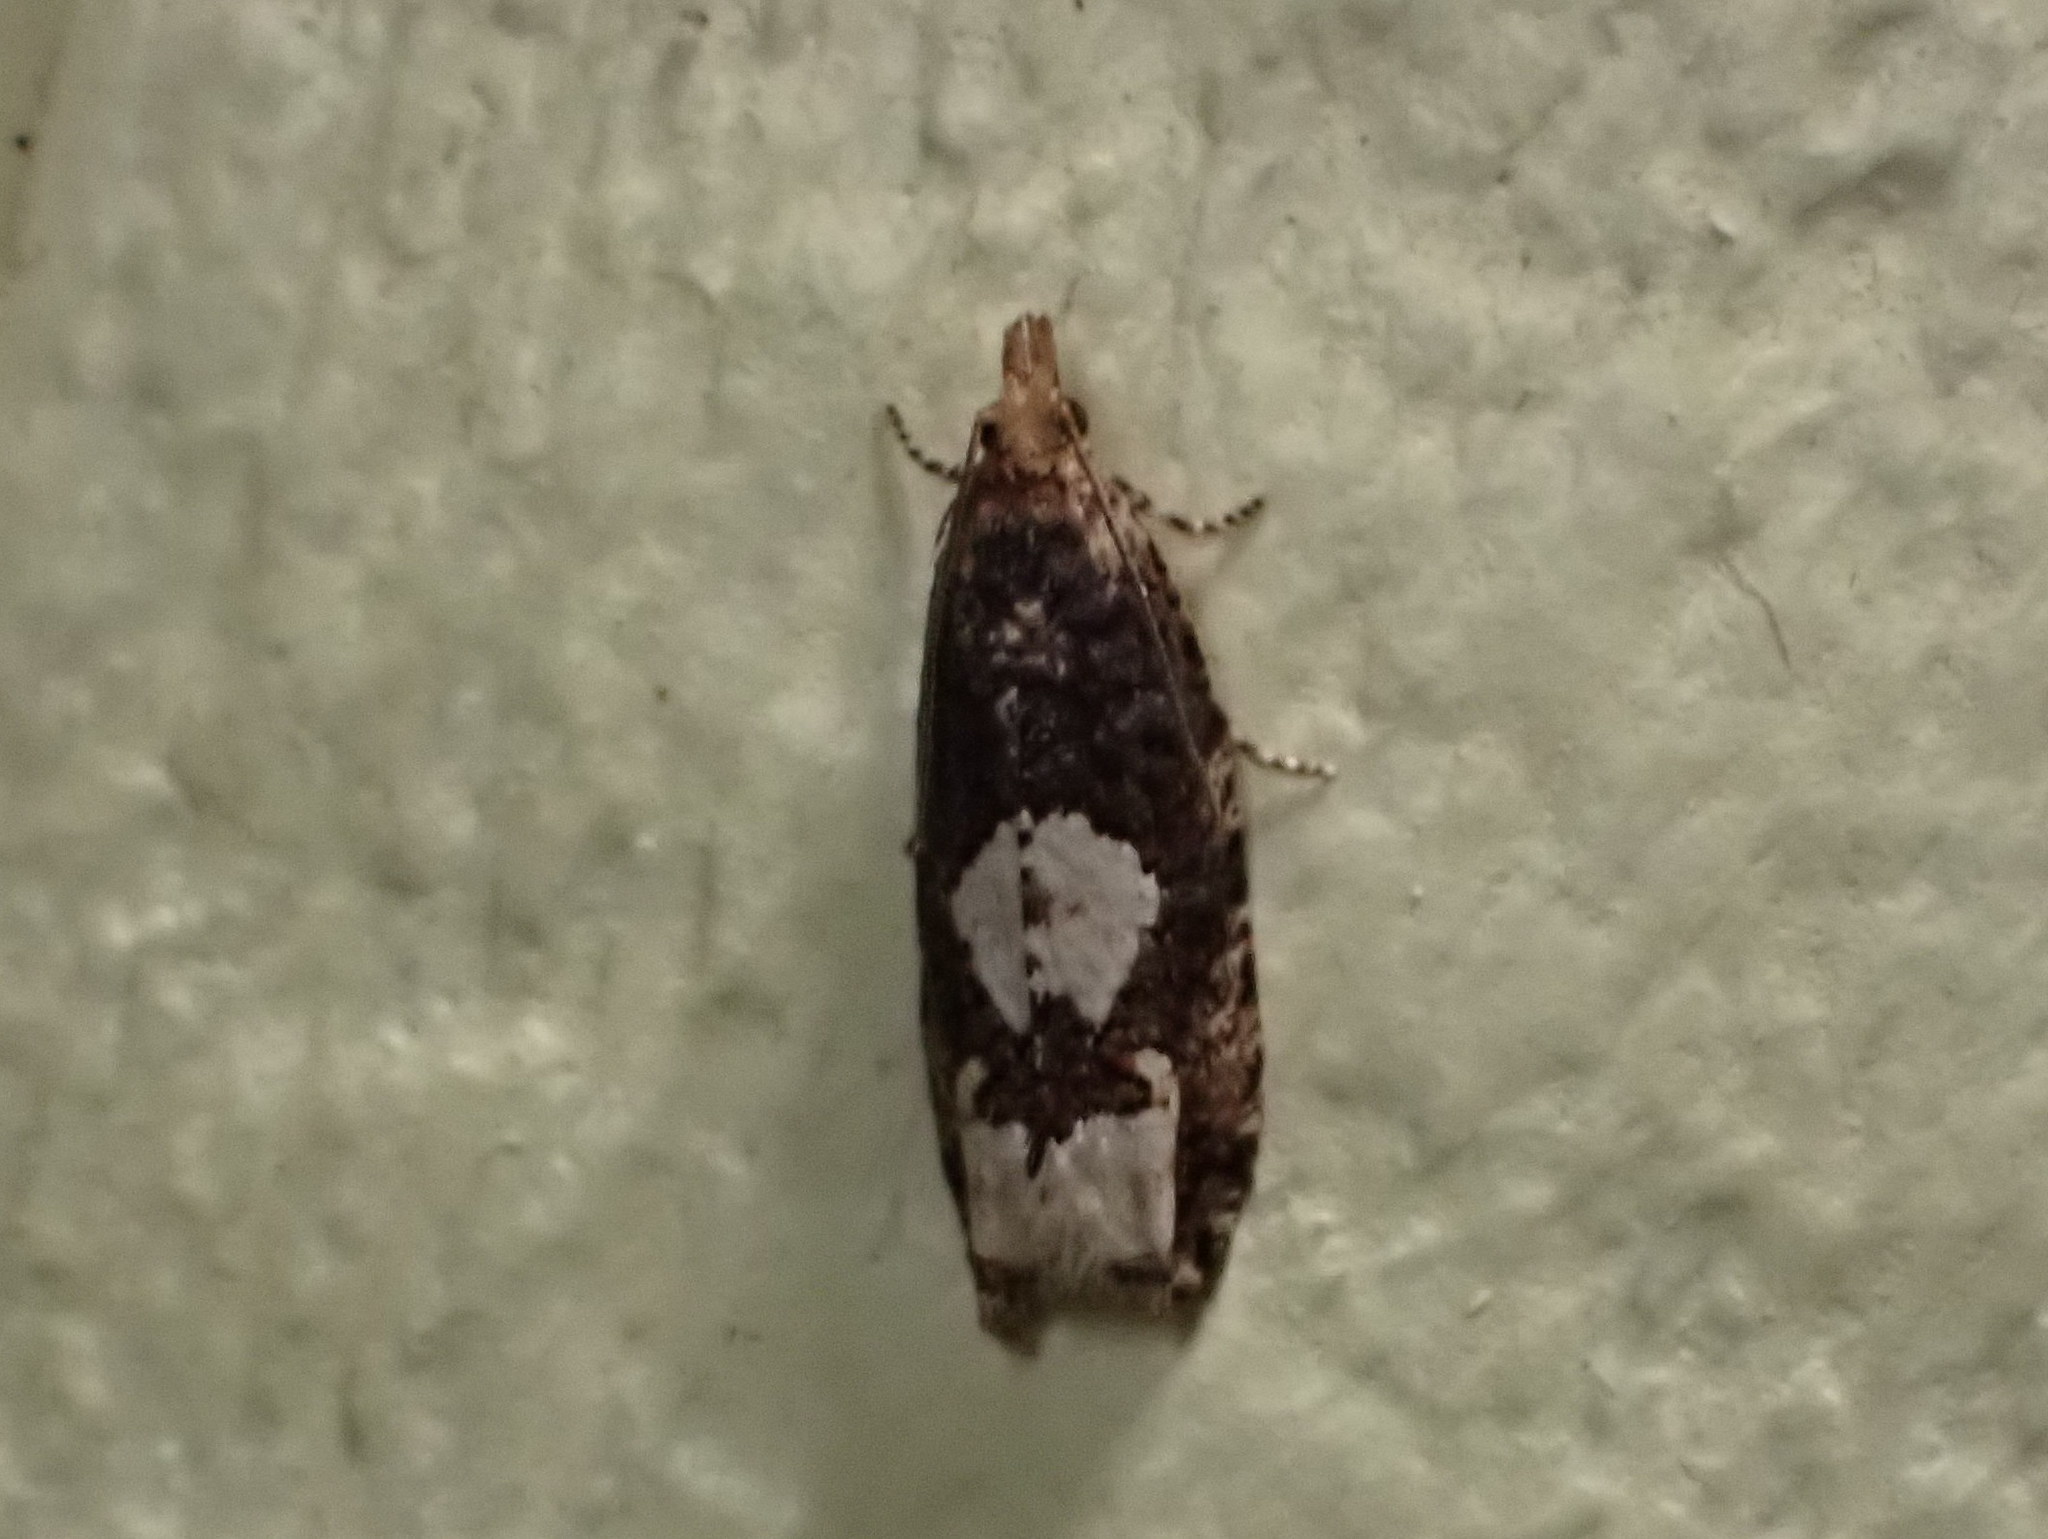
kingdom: Animalia
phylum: Arthropoda
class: Insecta
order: Lepidoptera
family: Tortricidae
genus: Epinotia
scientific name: Epinotia trigonella
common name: White-blotch bell
